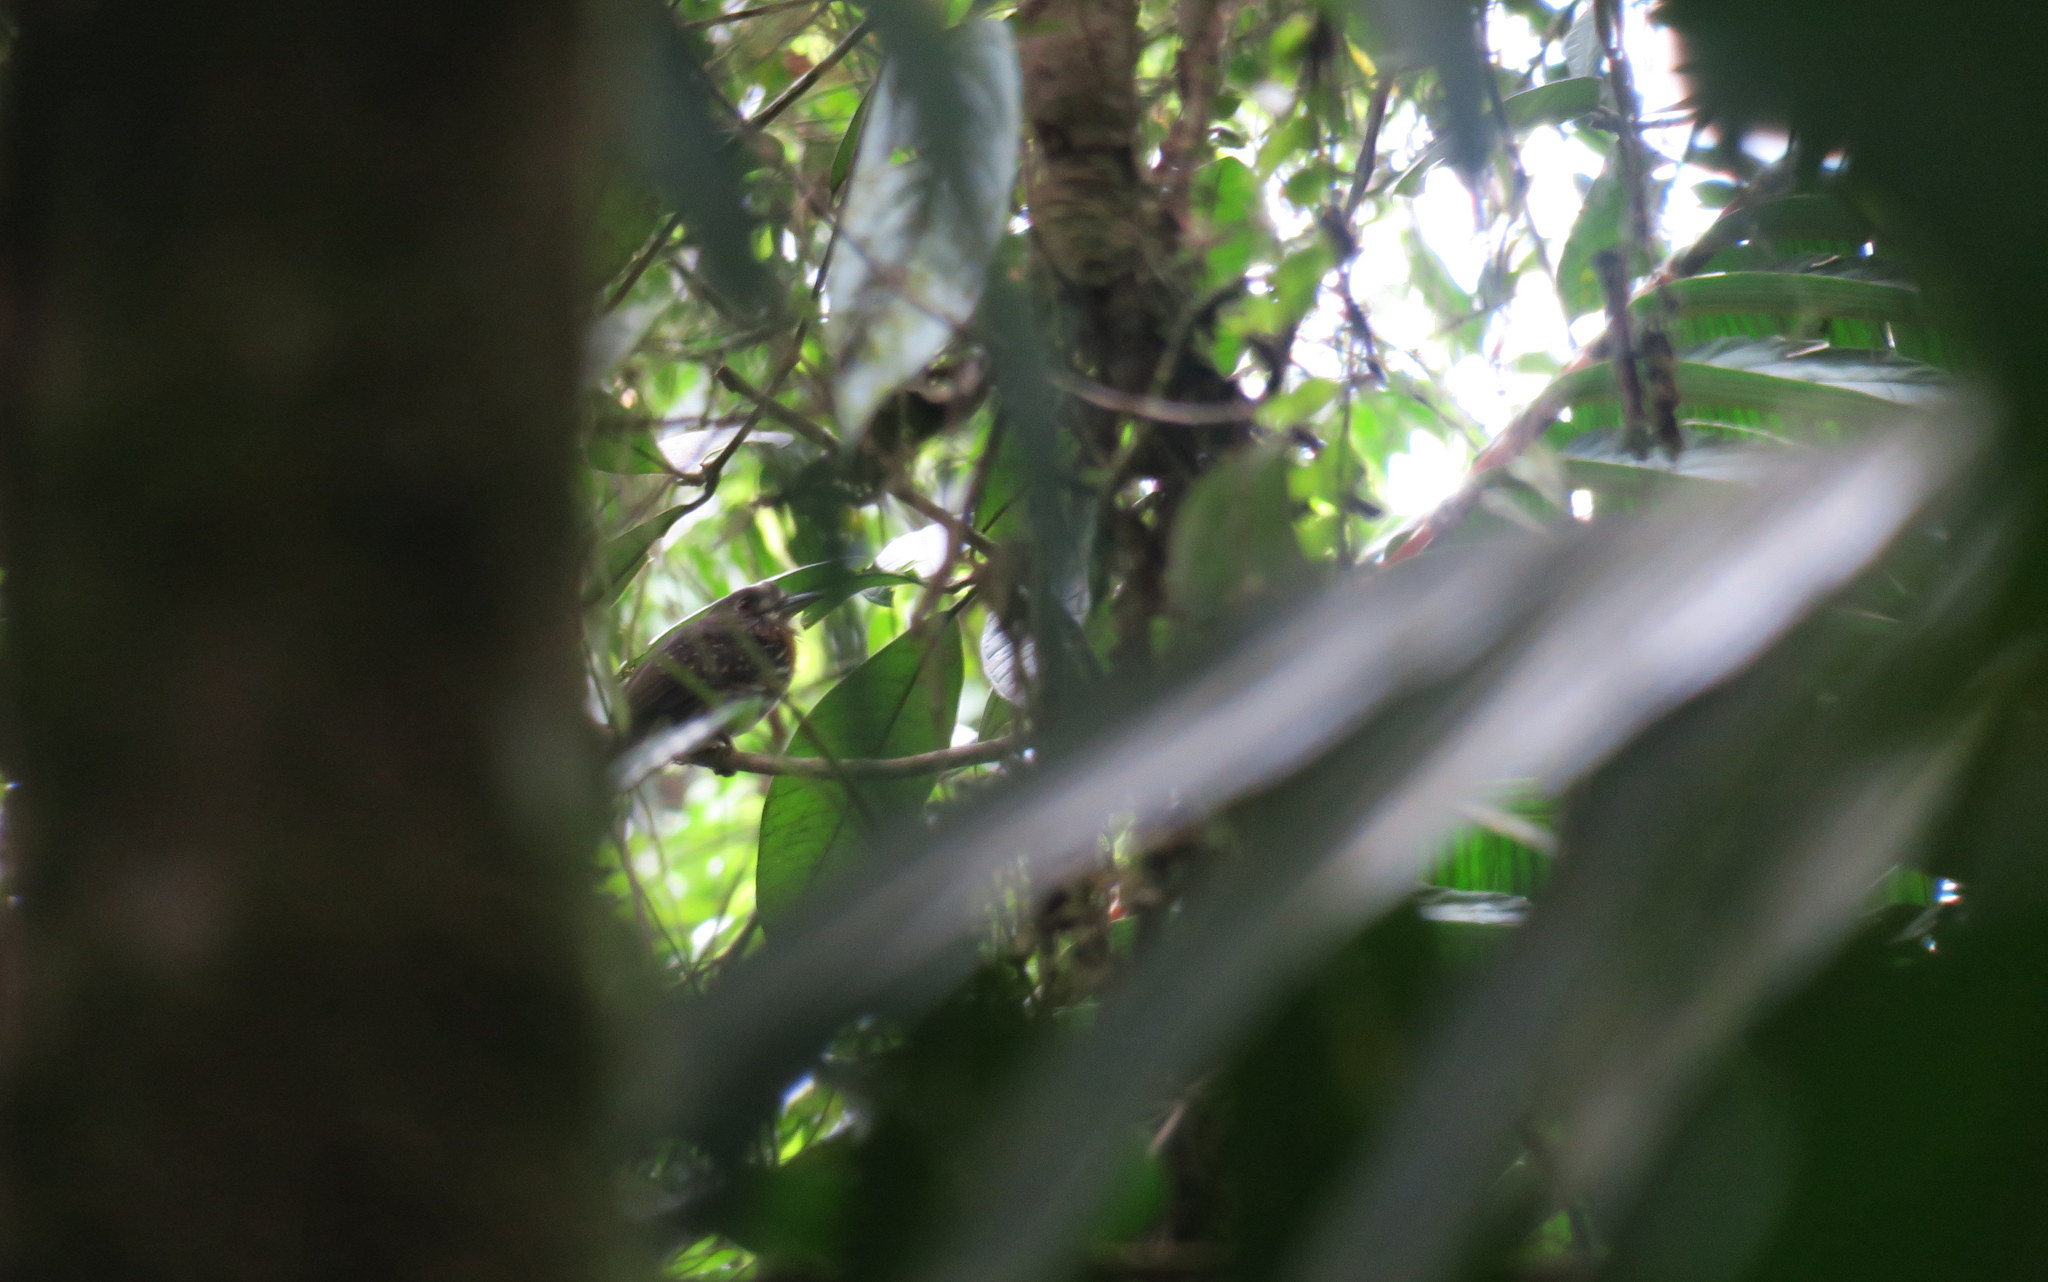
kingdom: Animalia
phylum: Chordata
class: Aves
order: Piciformes
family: Bucconidae
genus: Malacoptila
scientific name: Malacoptila panamensis
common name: White-whiskered puffbird
